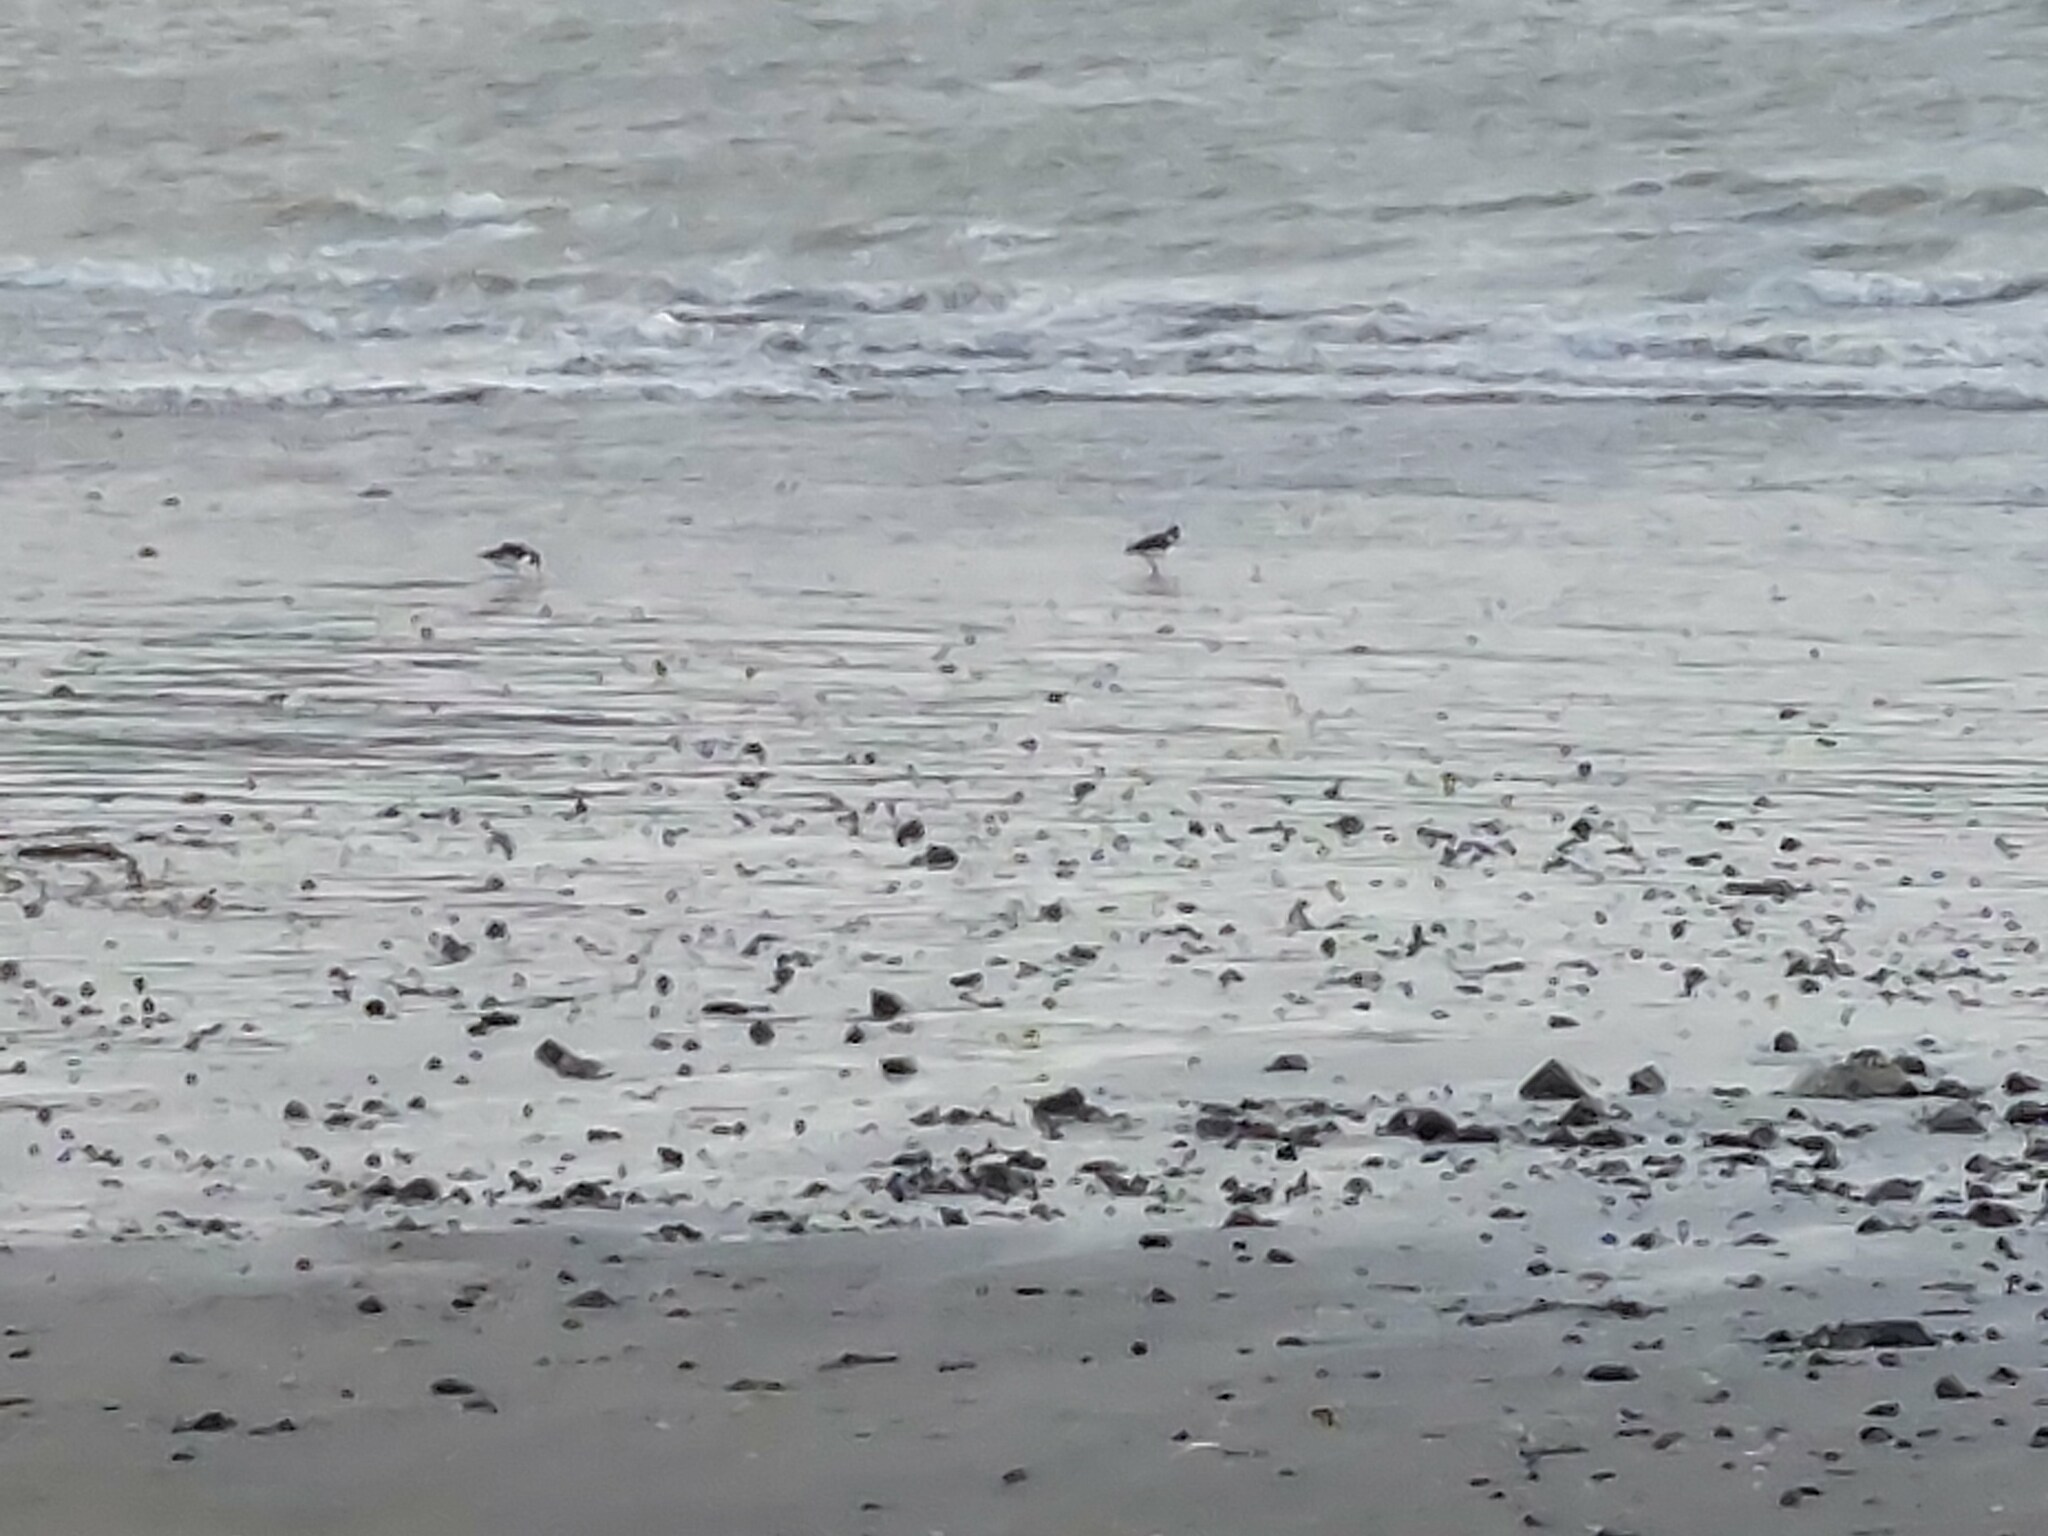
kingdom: Animalia
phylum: Chordata
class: Aves
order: Charadriiformes
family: Haematopodidae
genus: Haematopus
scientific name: Haematopus finschi
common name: South island oystercatcher
